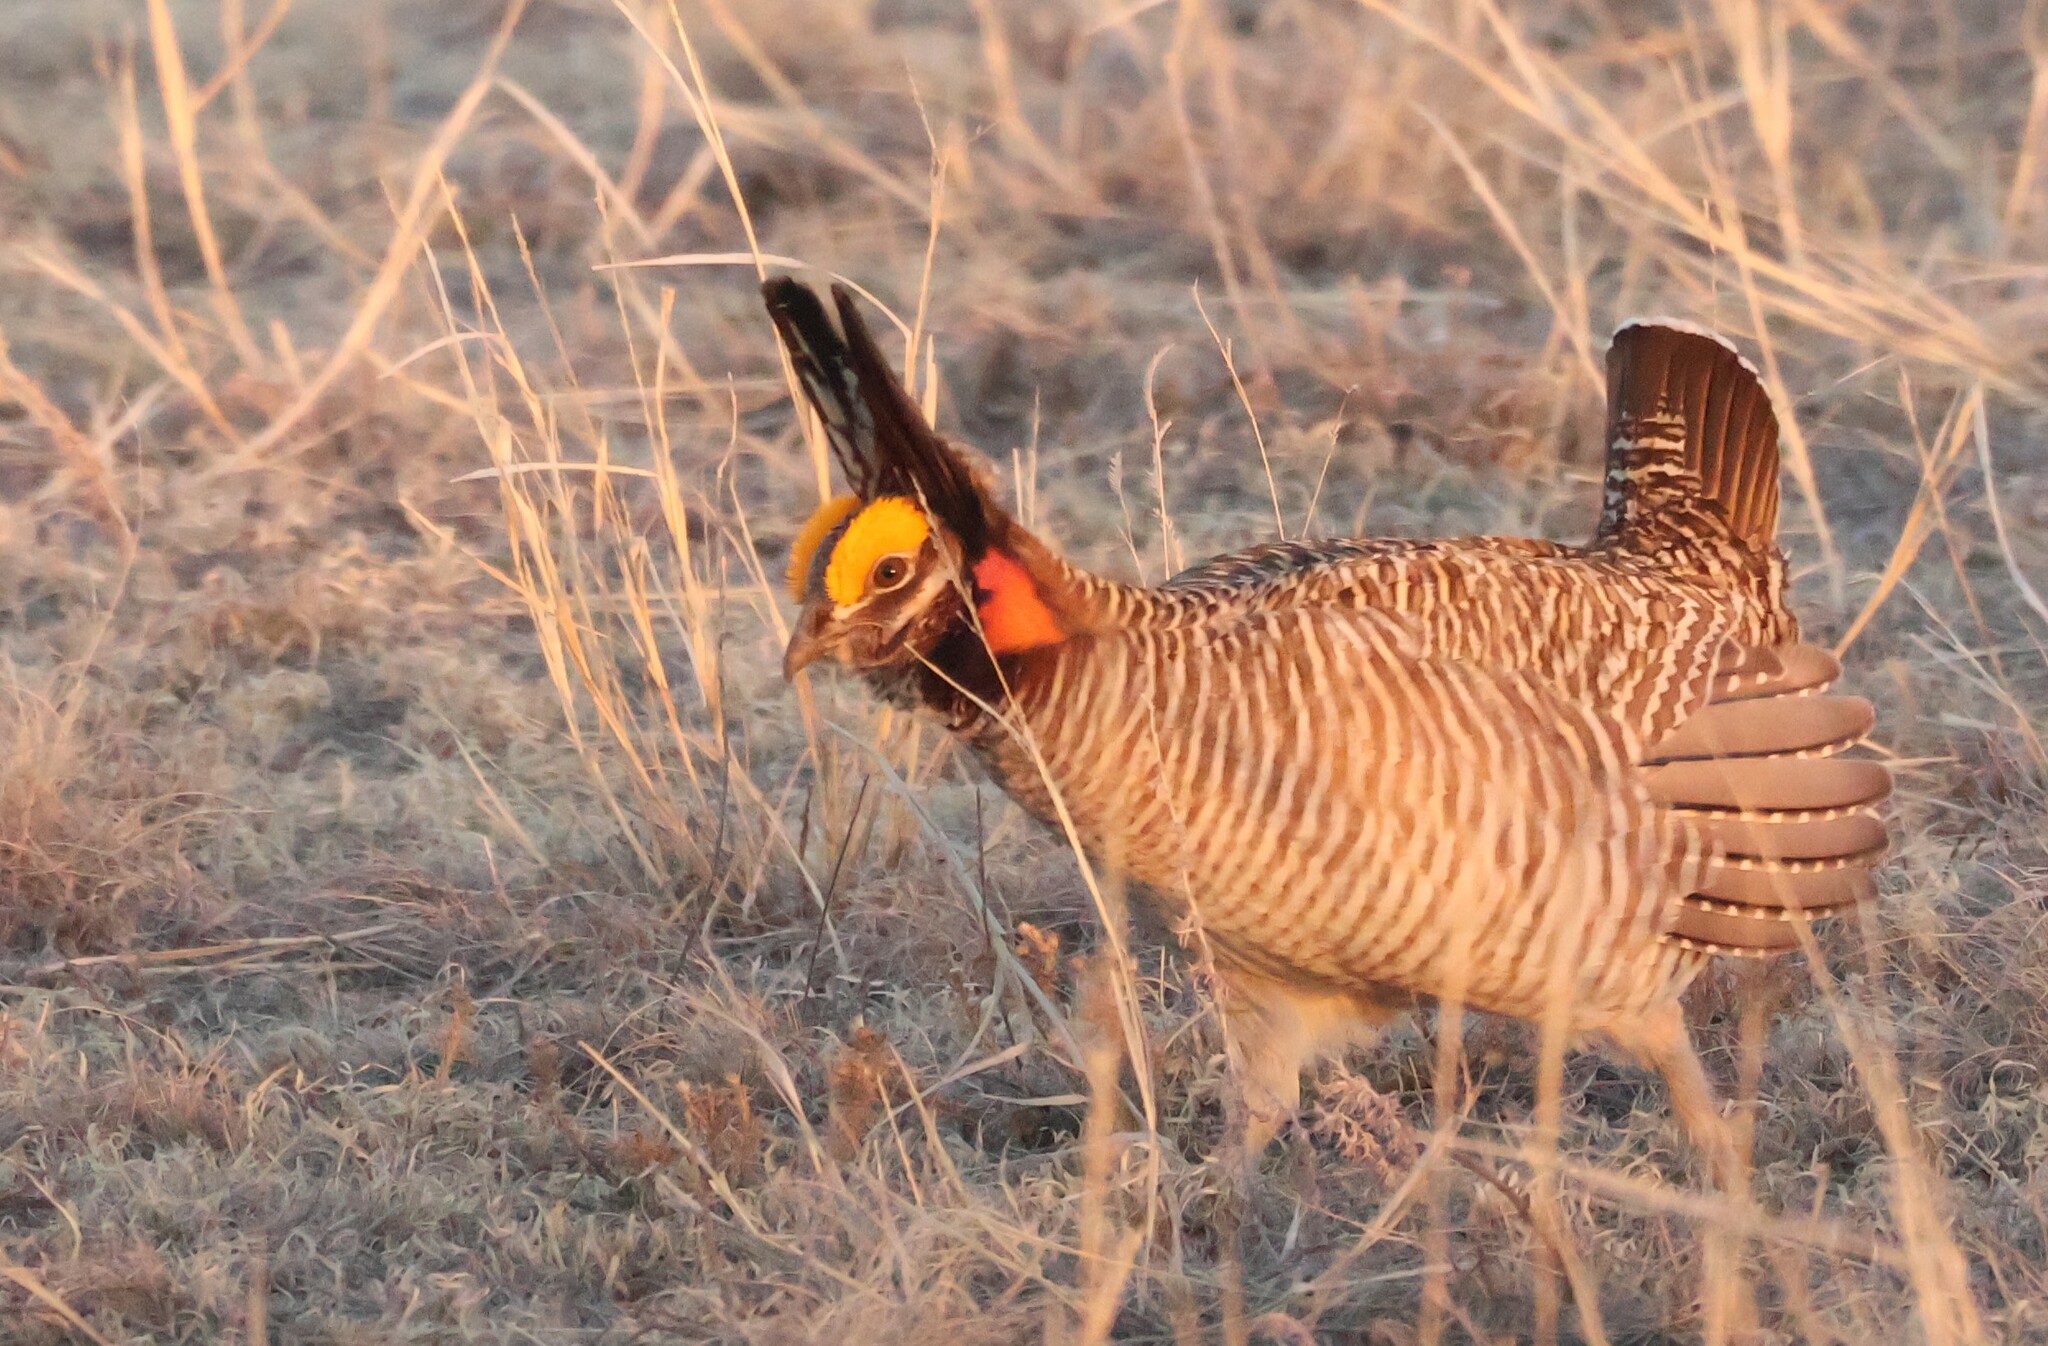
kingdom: Animalia
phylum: Chordata
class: Aves
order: Galliformes
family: Phasianidae
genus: Tympanuchus
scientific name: Tympanuchus pallidicinctus
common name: Lesser prairie chicken
